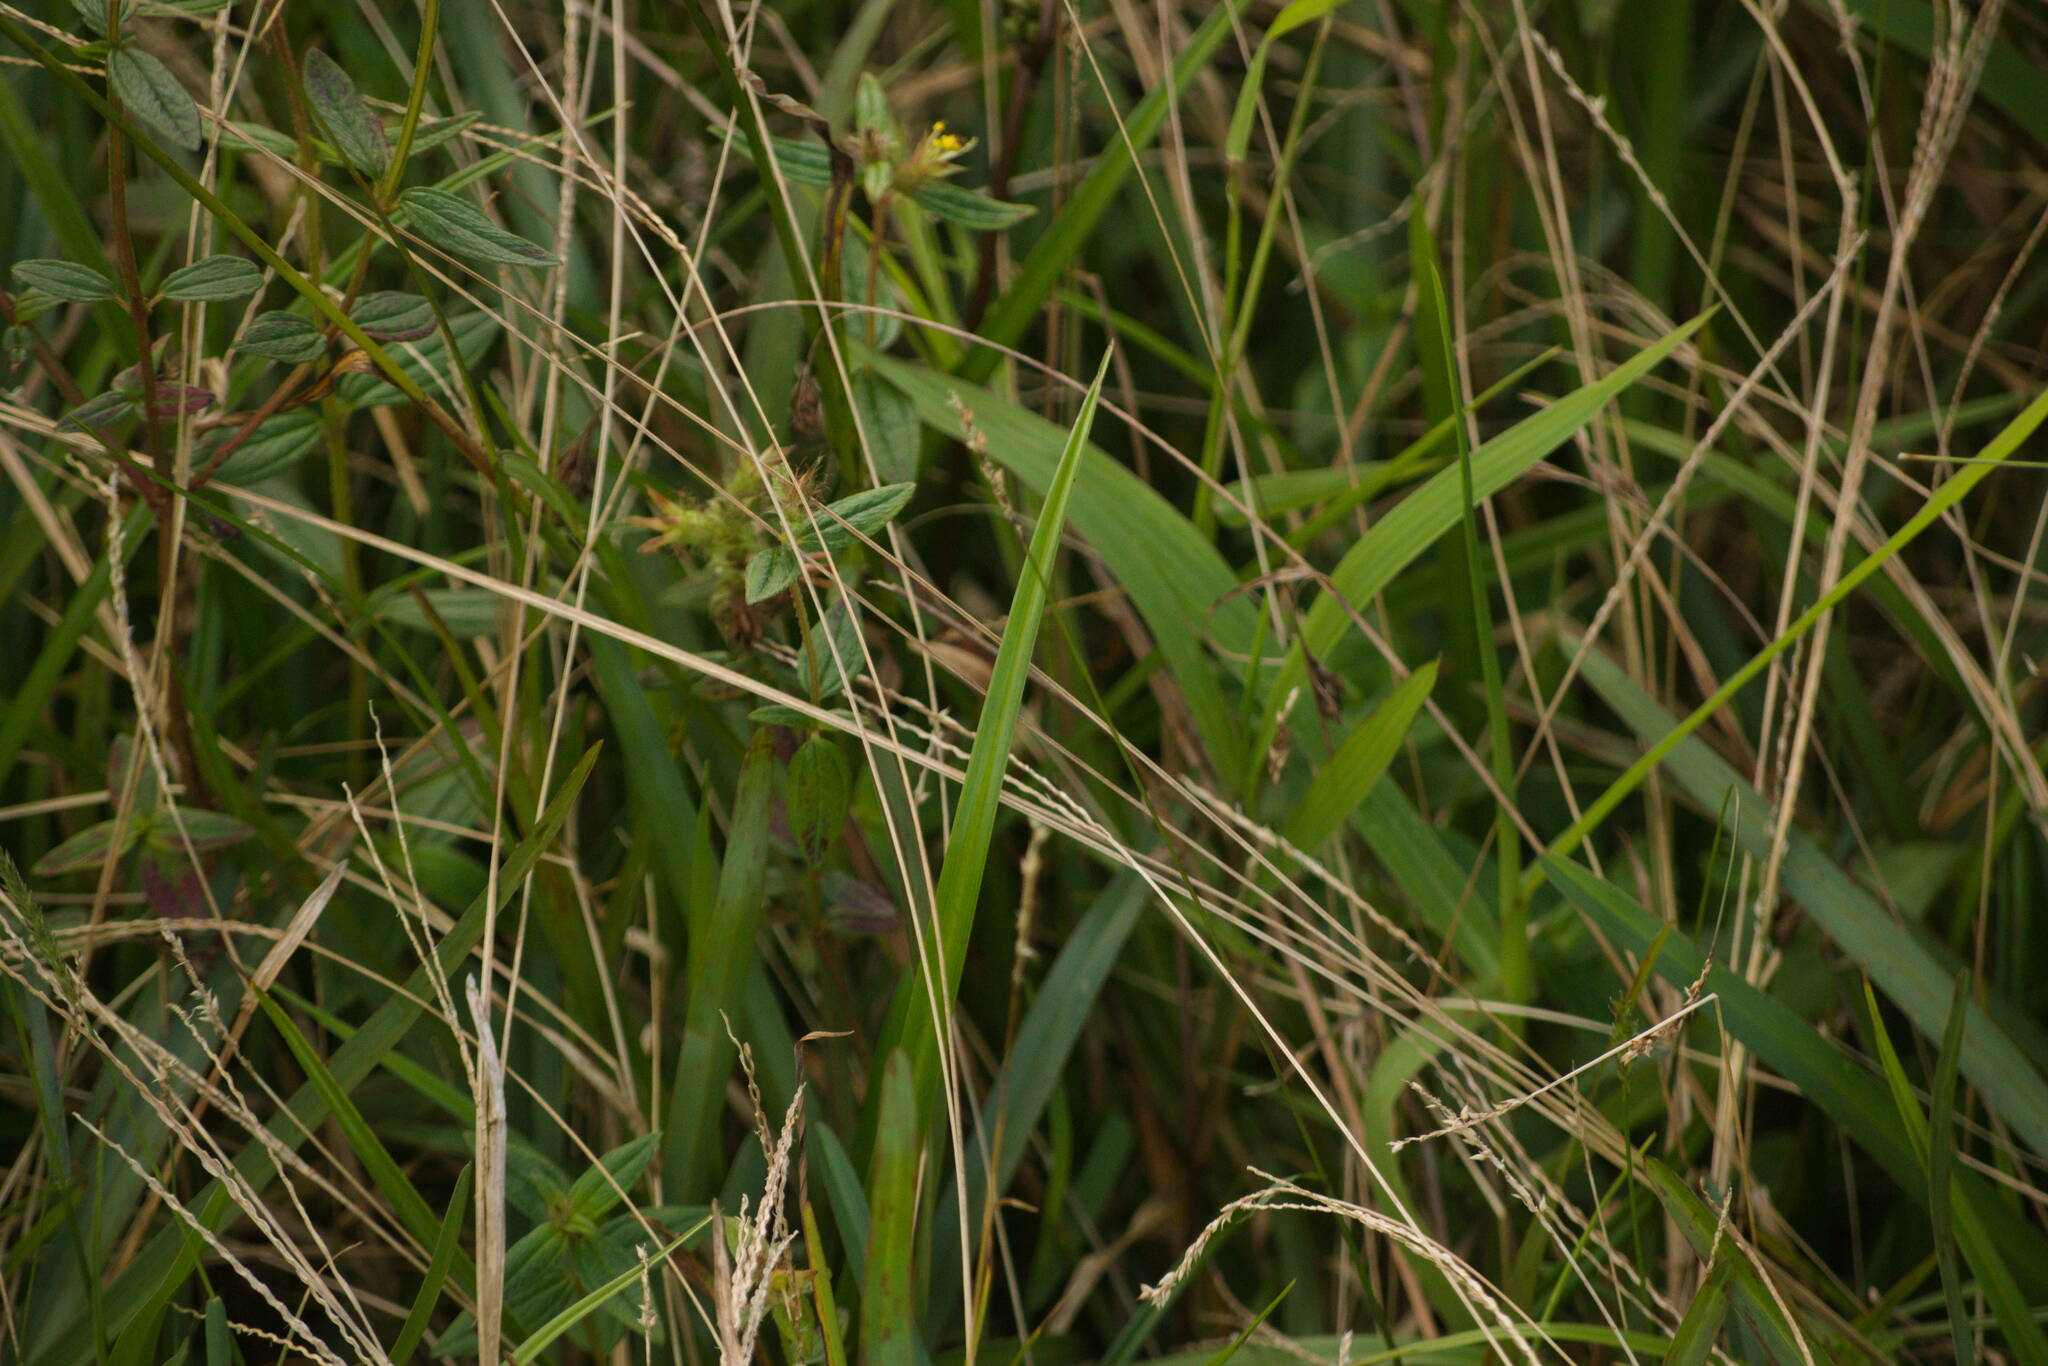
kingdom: Plantae
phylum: Tracheophyta
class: Liliopsida
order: Poales
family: Poaceae
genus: Sacciolepis
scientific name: Sacciolepis indica
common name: Glenwoodgrass
